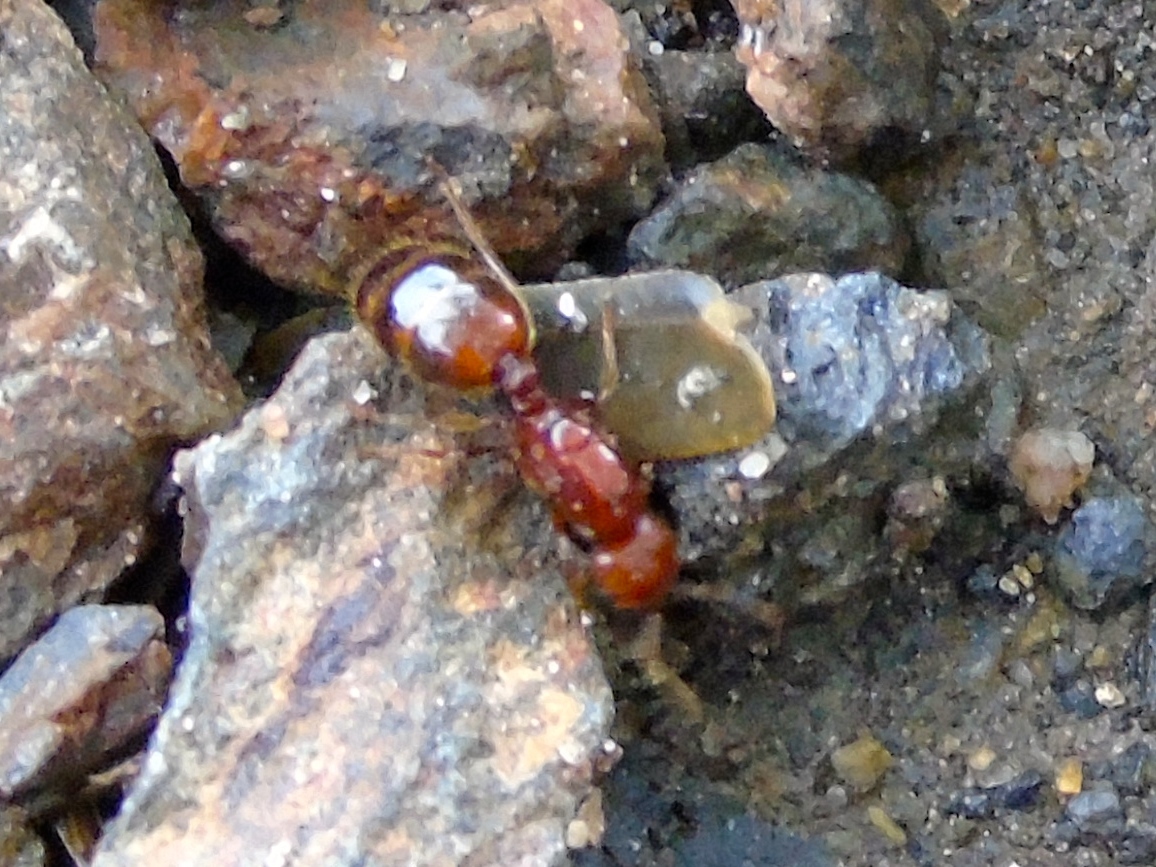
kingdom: Animalia
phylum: Arthropoda
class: Insecta
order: Hymenoptera
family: Formicidae
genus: Solenopsis
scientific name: Solenopsis xyloni
